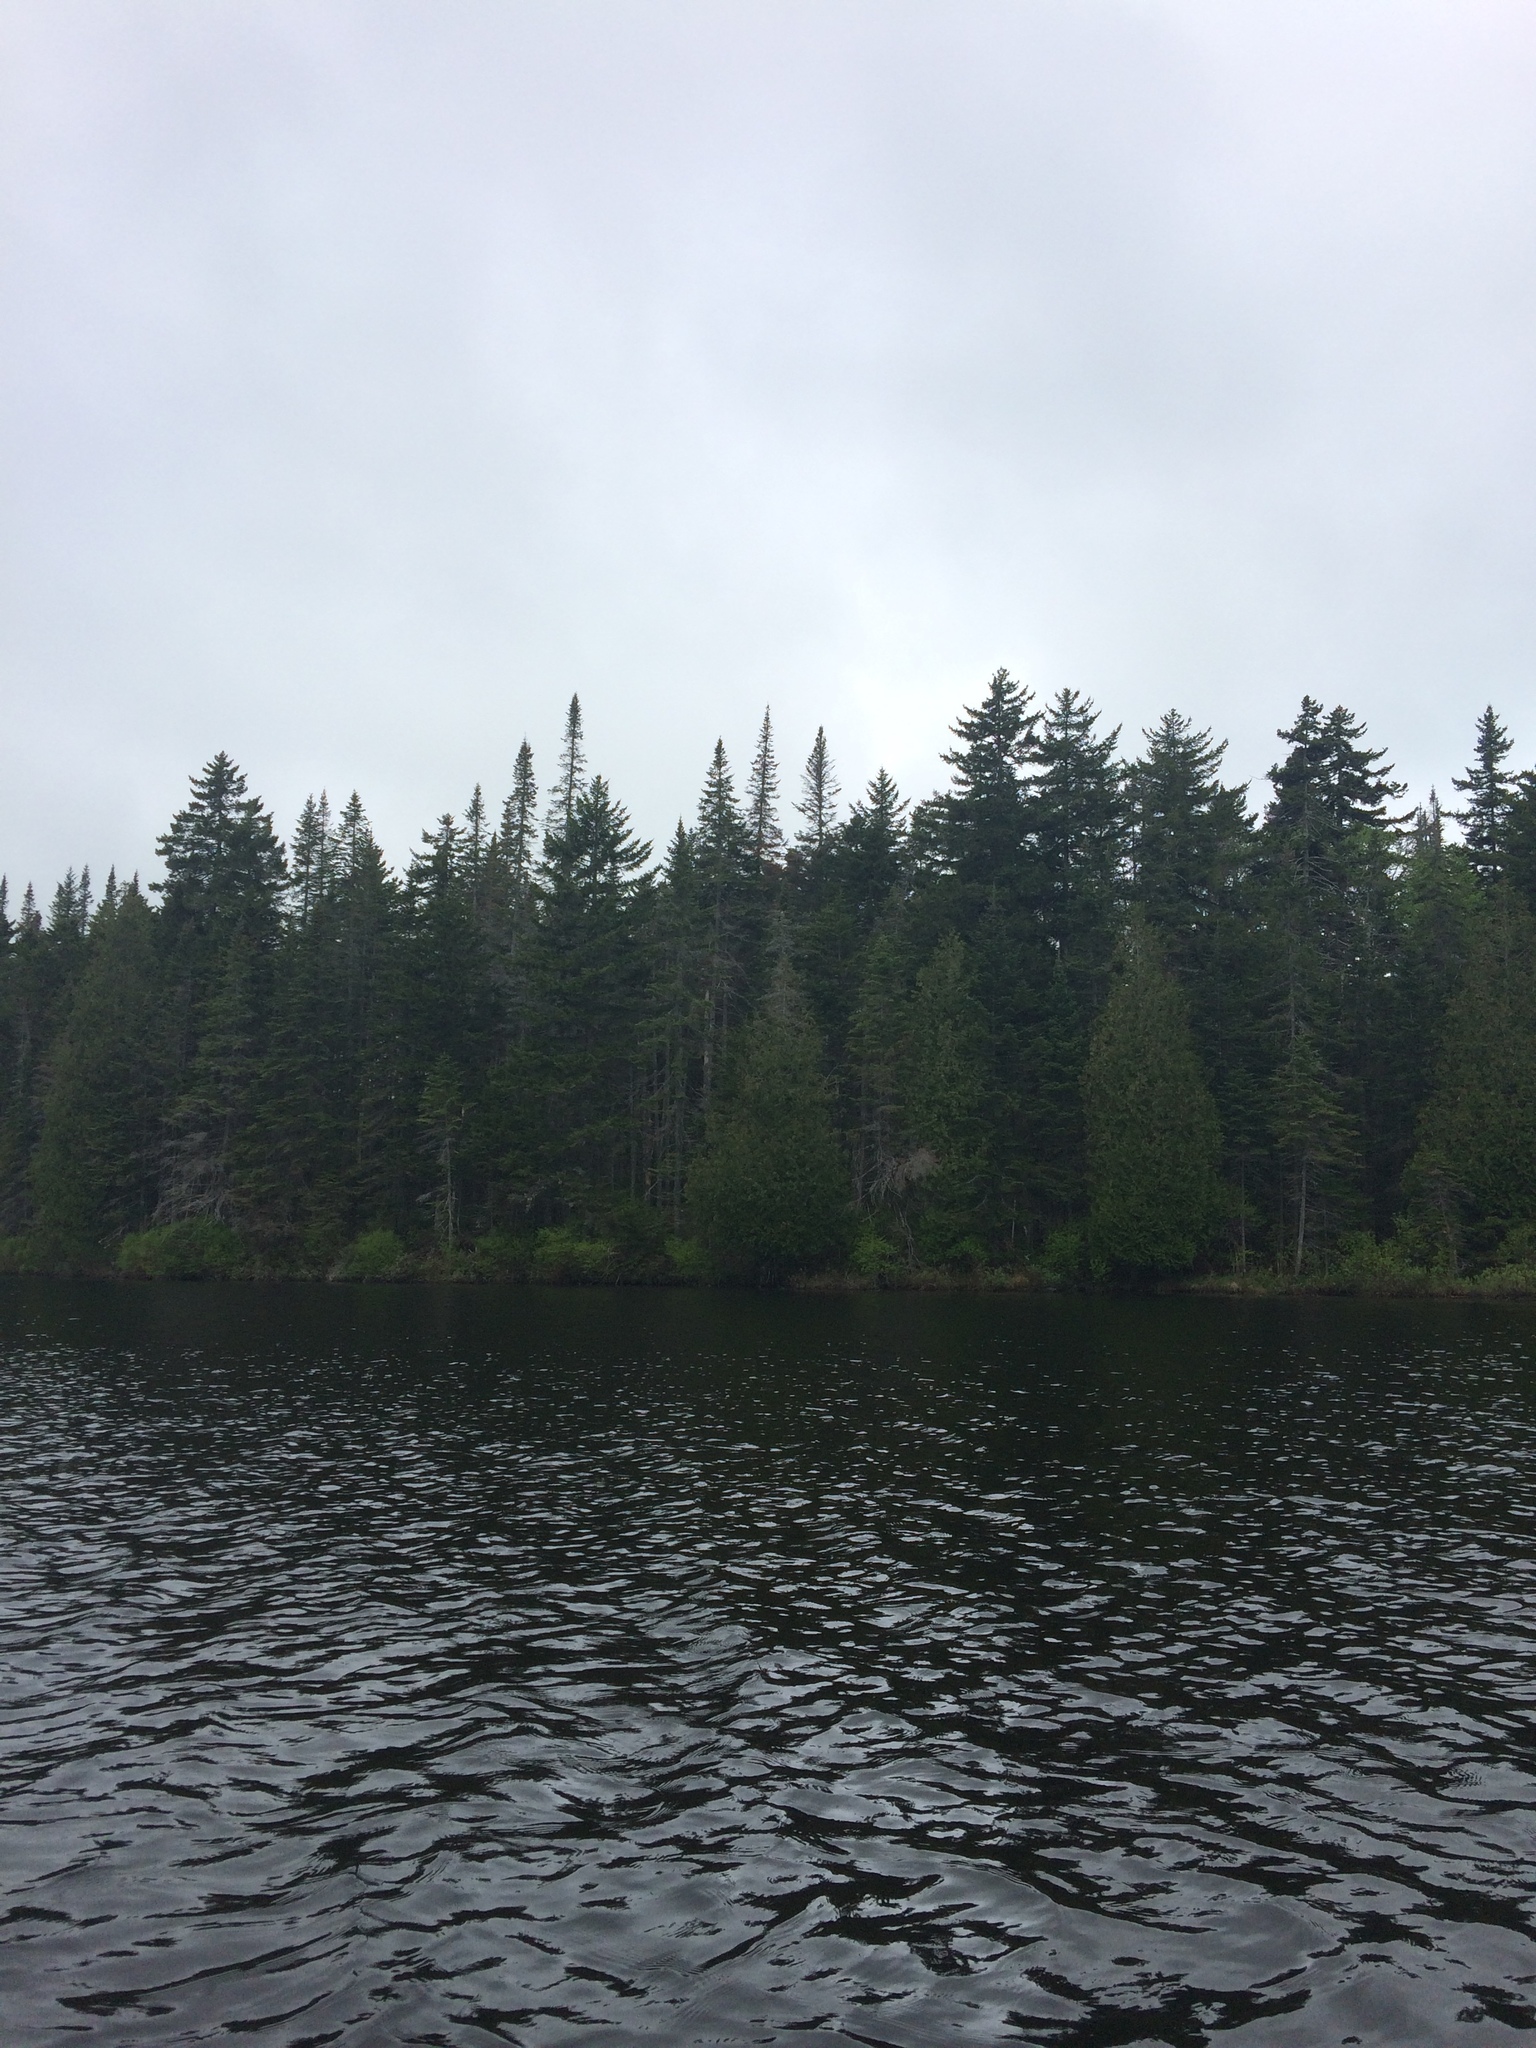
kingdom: Plantae
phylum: Tracheophyta
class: Pinopsida
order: Pinales
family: Pinaceae
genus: Abies
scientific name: Abies balsamea
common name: Balsam fir
